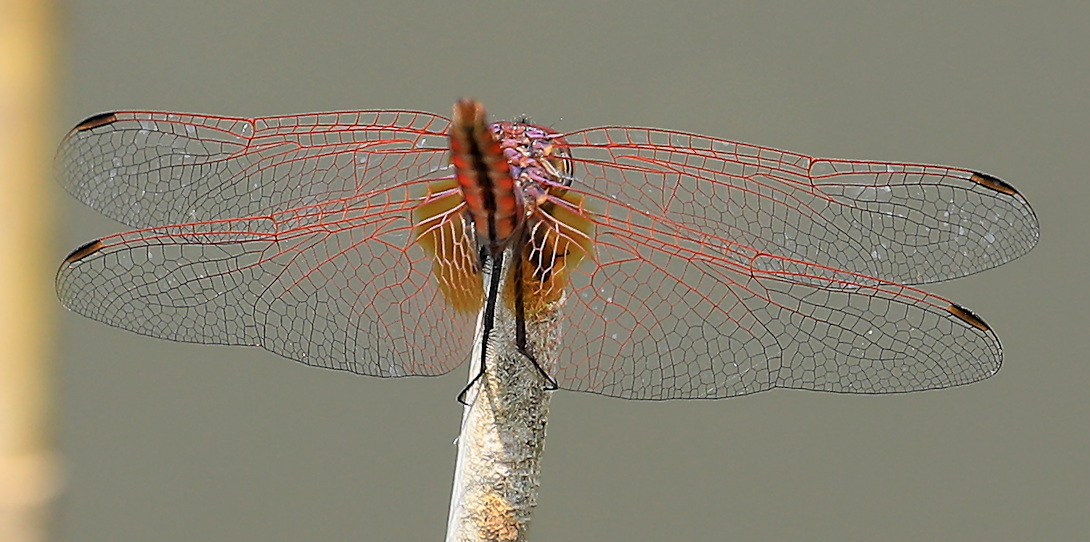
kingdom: Animalia
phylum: Arthropoda
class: Insecta
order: Odonata
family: Libellulidae
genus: Trithemis
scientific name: Trithemis annulata
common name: Violet dropwing
